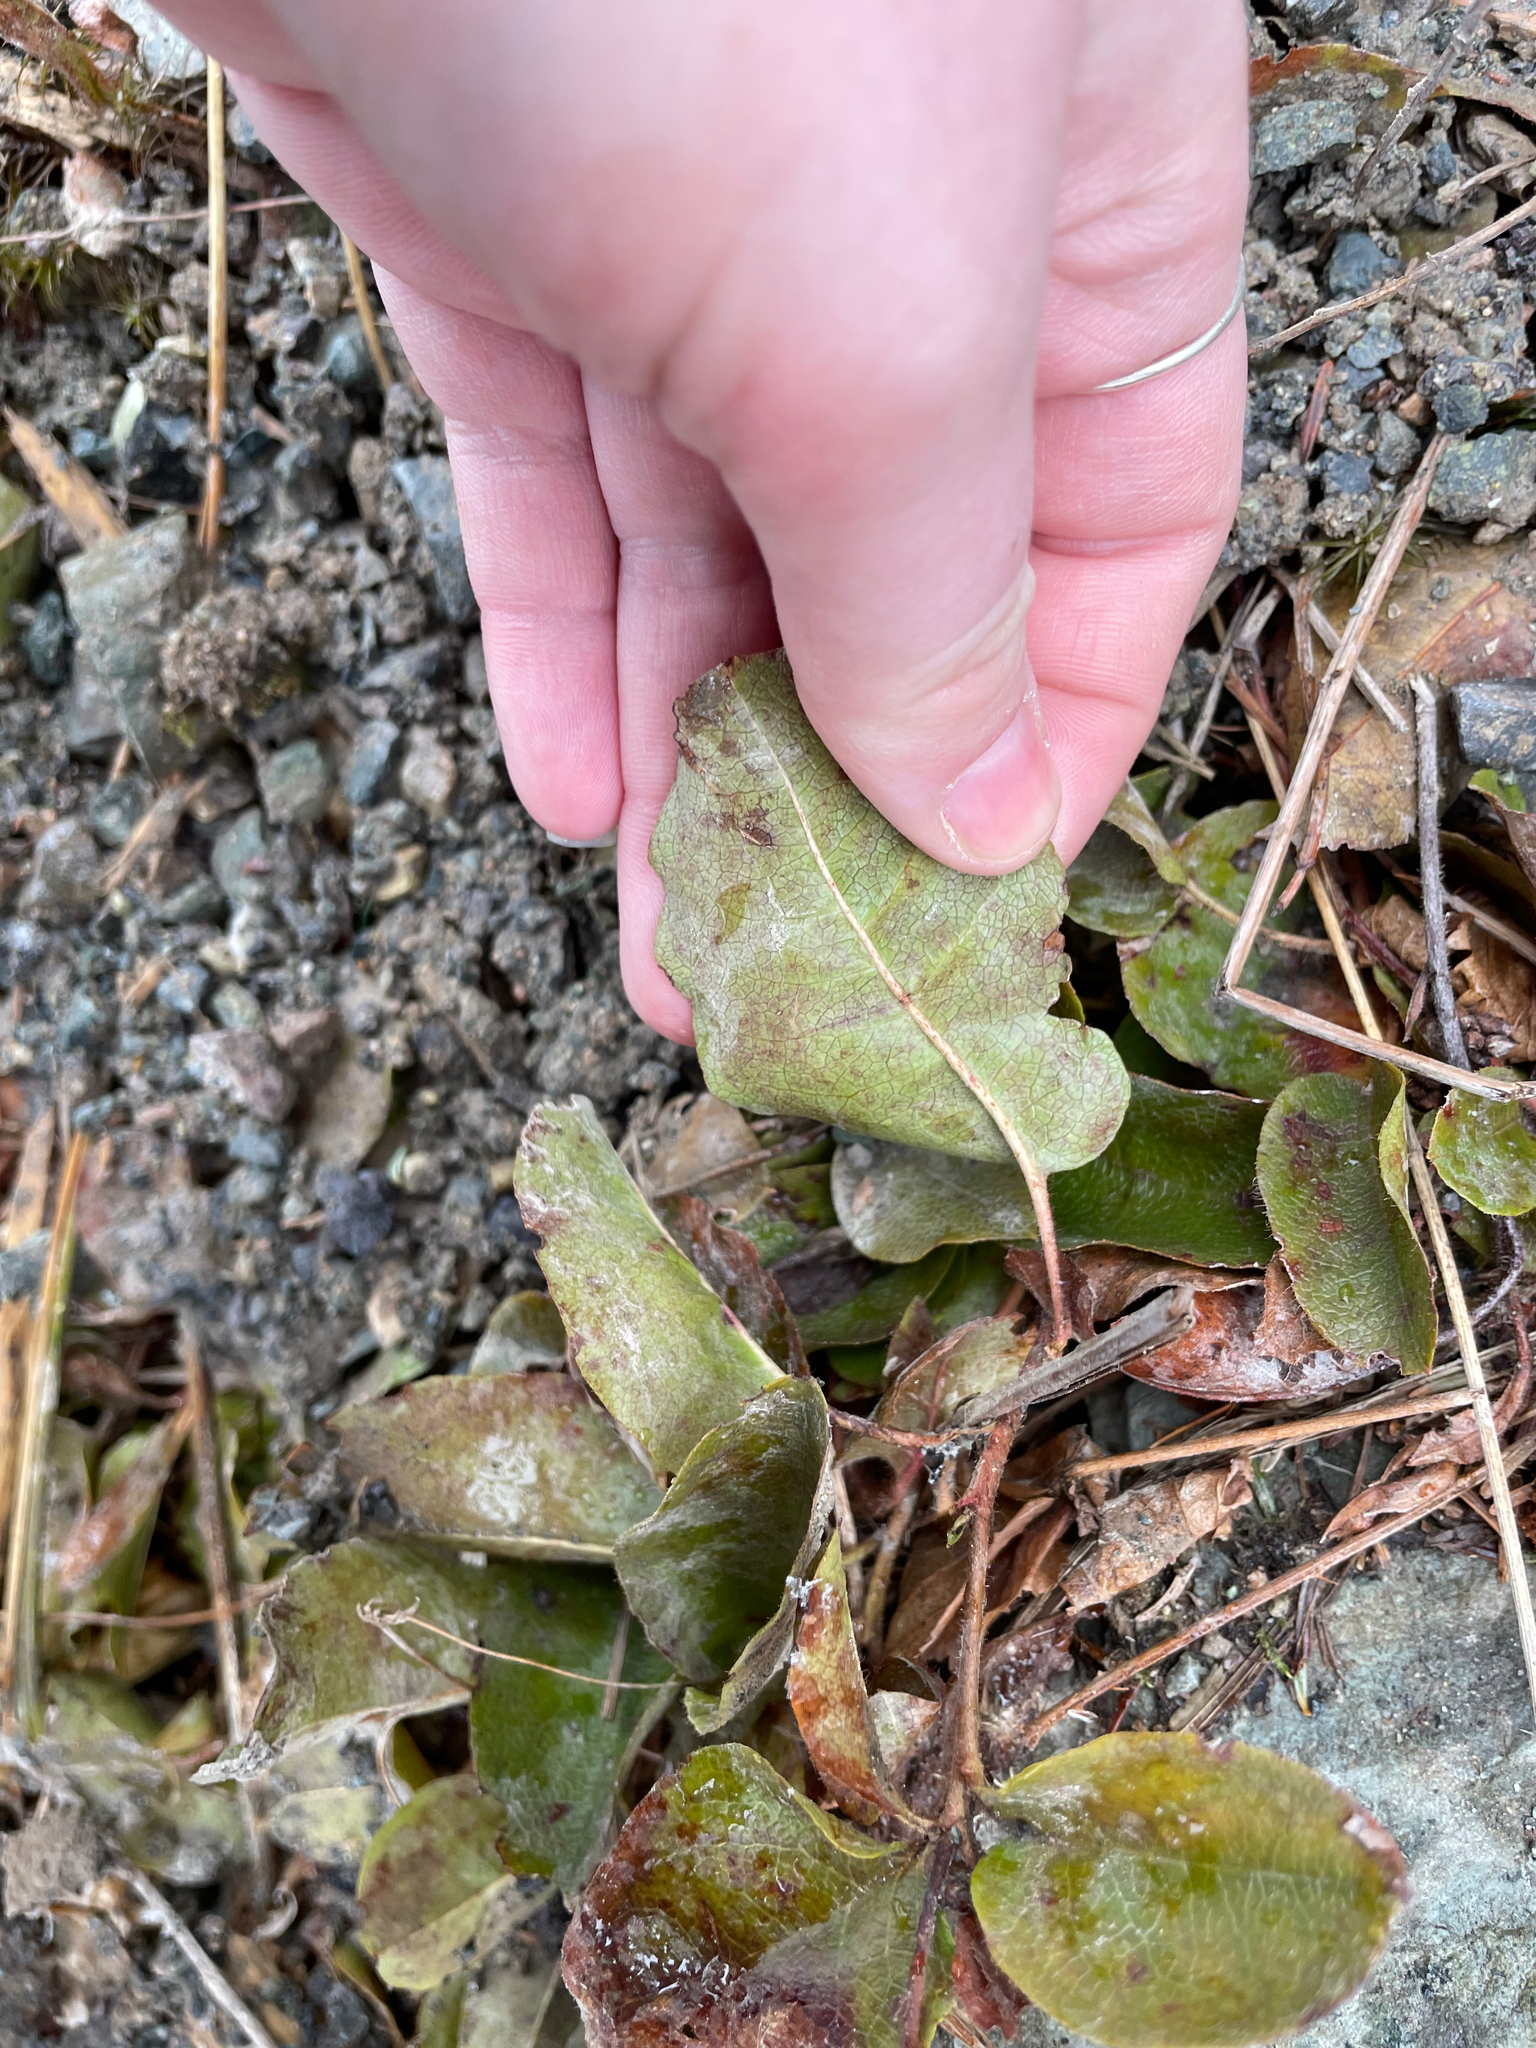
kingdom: Plantae
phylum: Tracheophyta
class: Magnoliopsida
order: Ericales
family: Ericaceae
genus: Epigaea
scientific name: Epigaea repens
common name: Gravelroot
